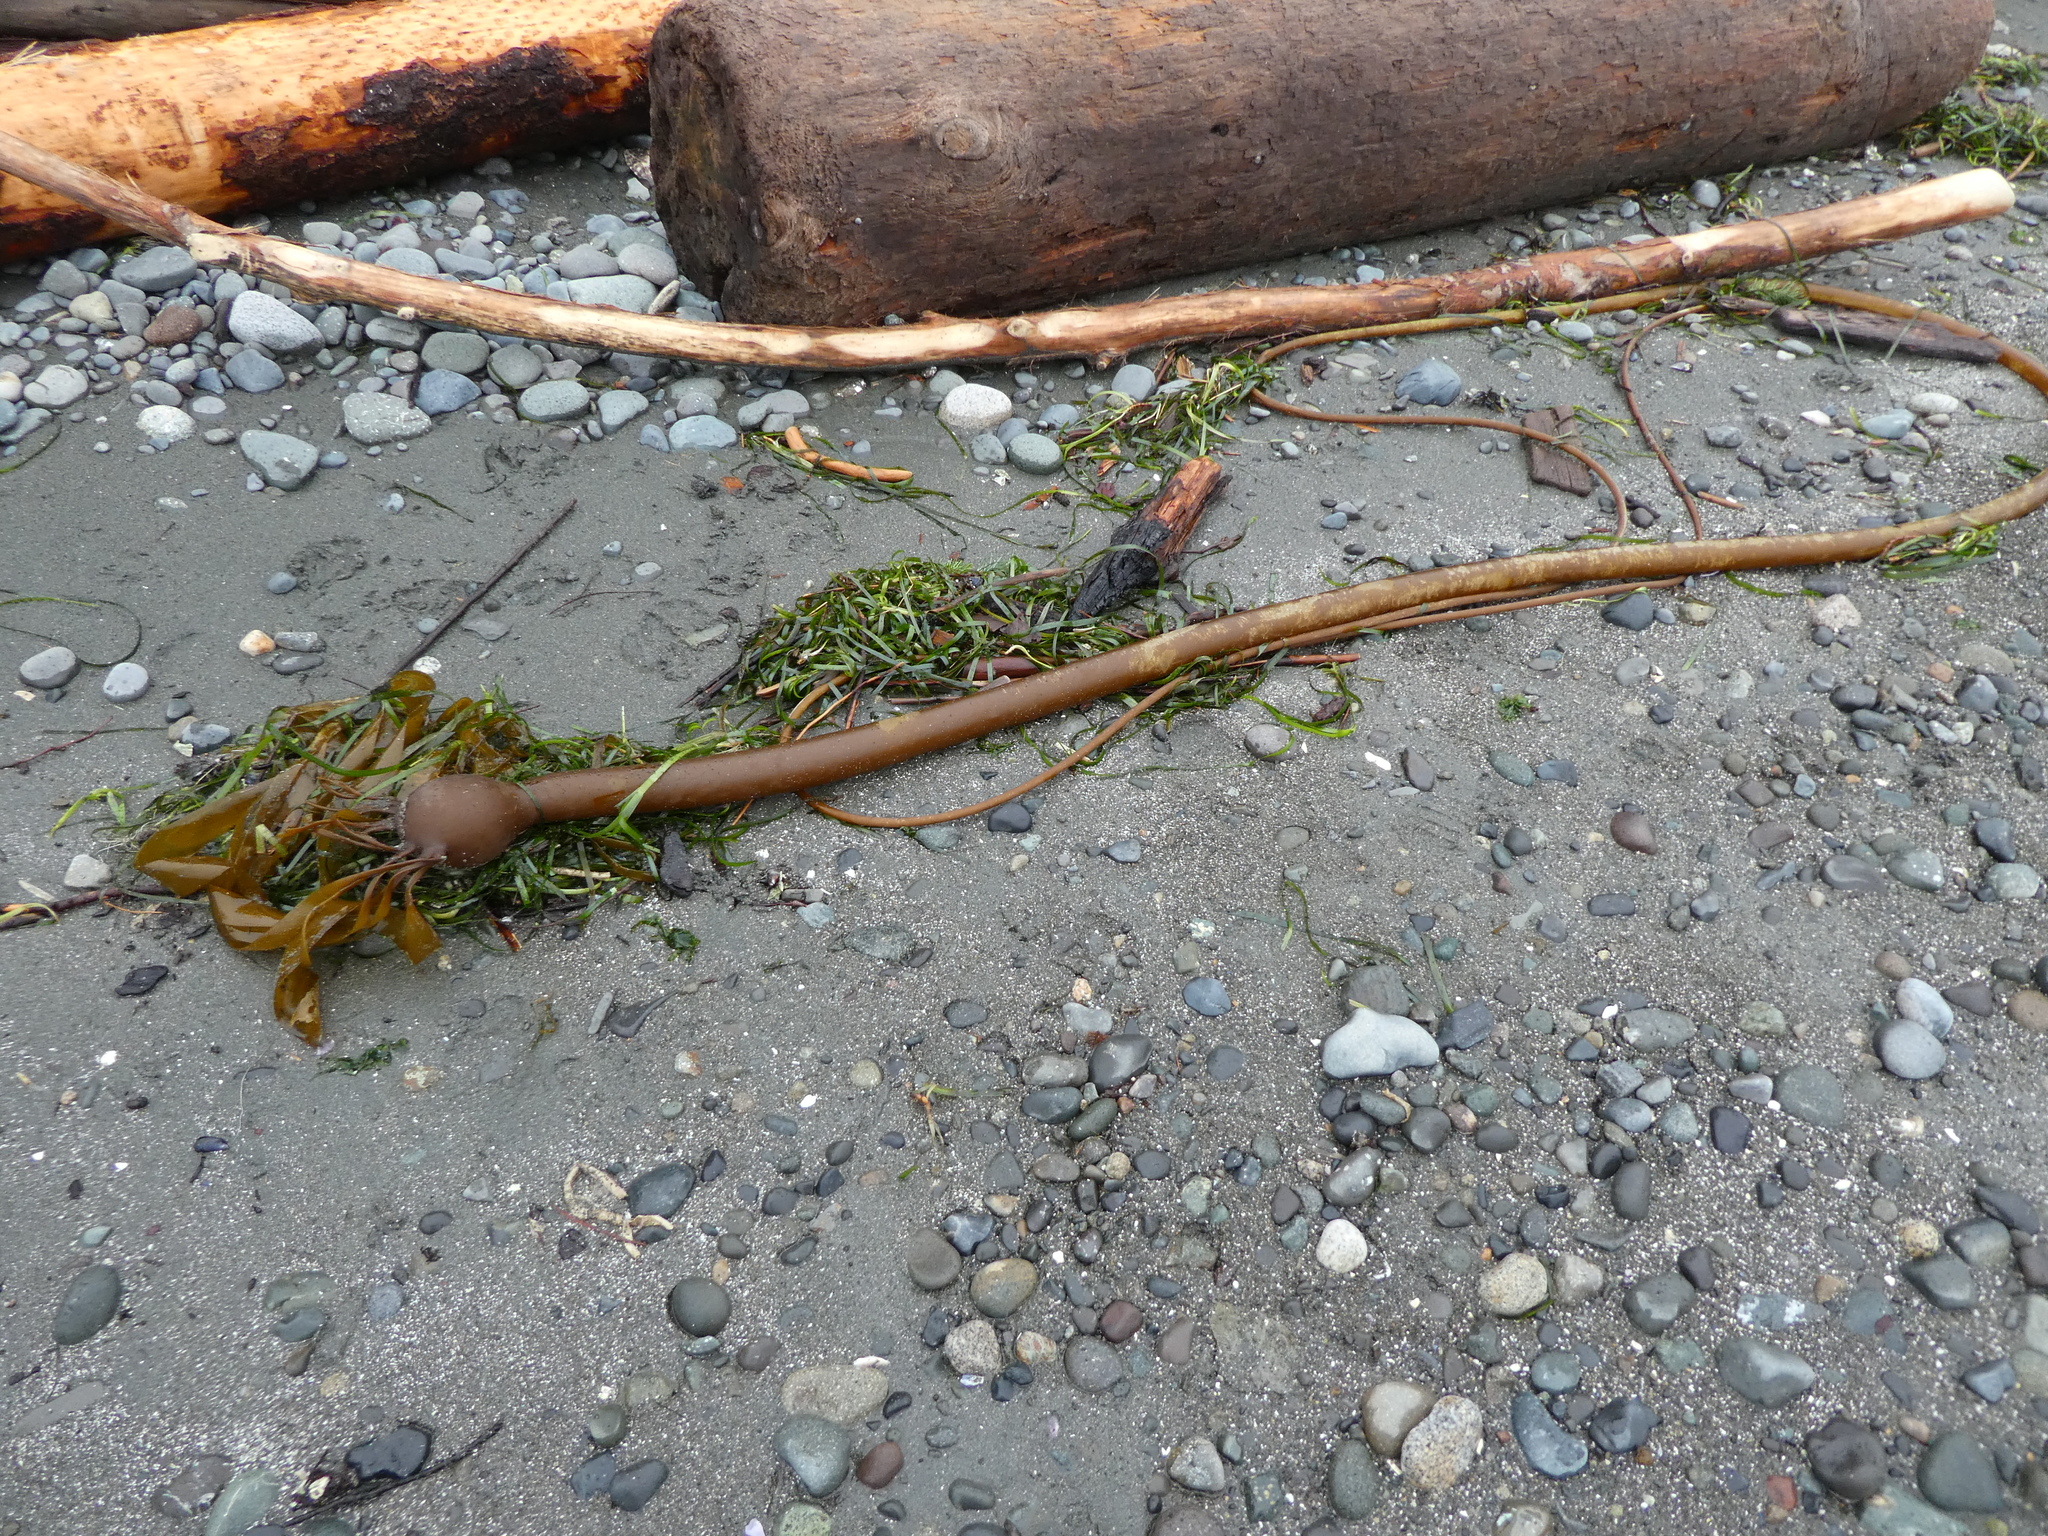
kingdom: Chromista
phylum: Ochrophyta
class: Phaeophyceae
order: Laminariales
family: Laminariaceae
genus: Nereocystis
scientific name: Nereocystis luetkeana
